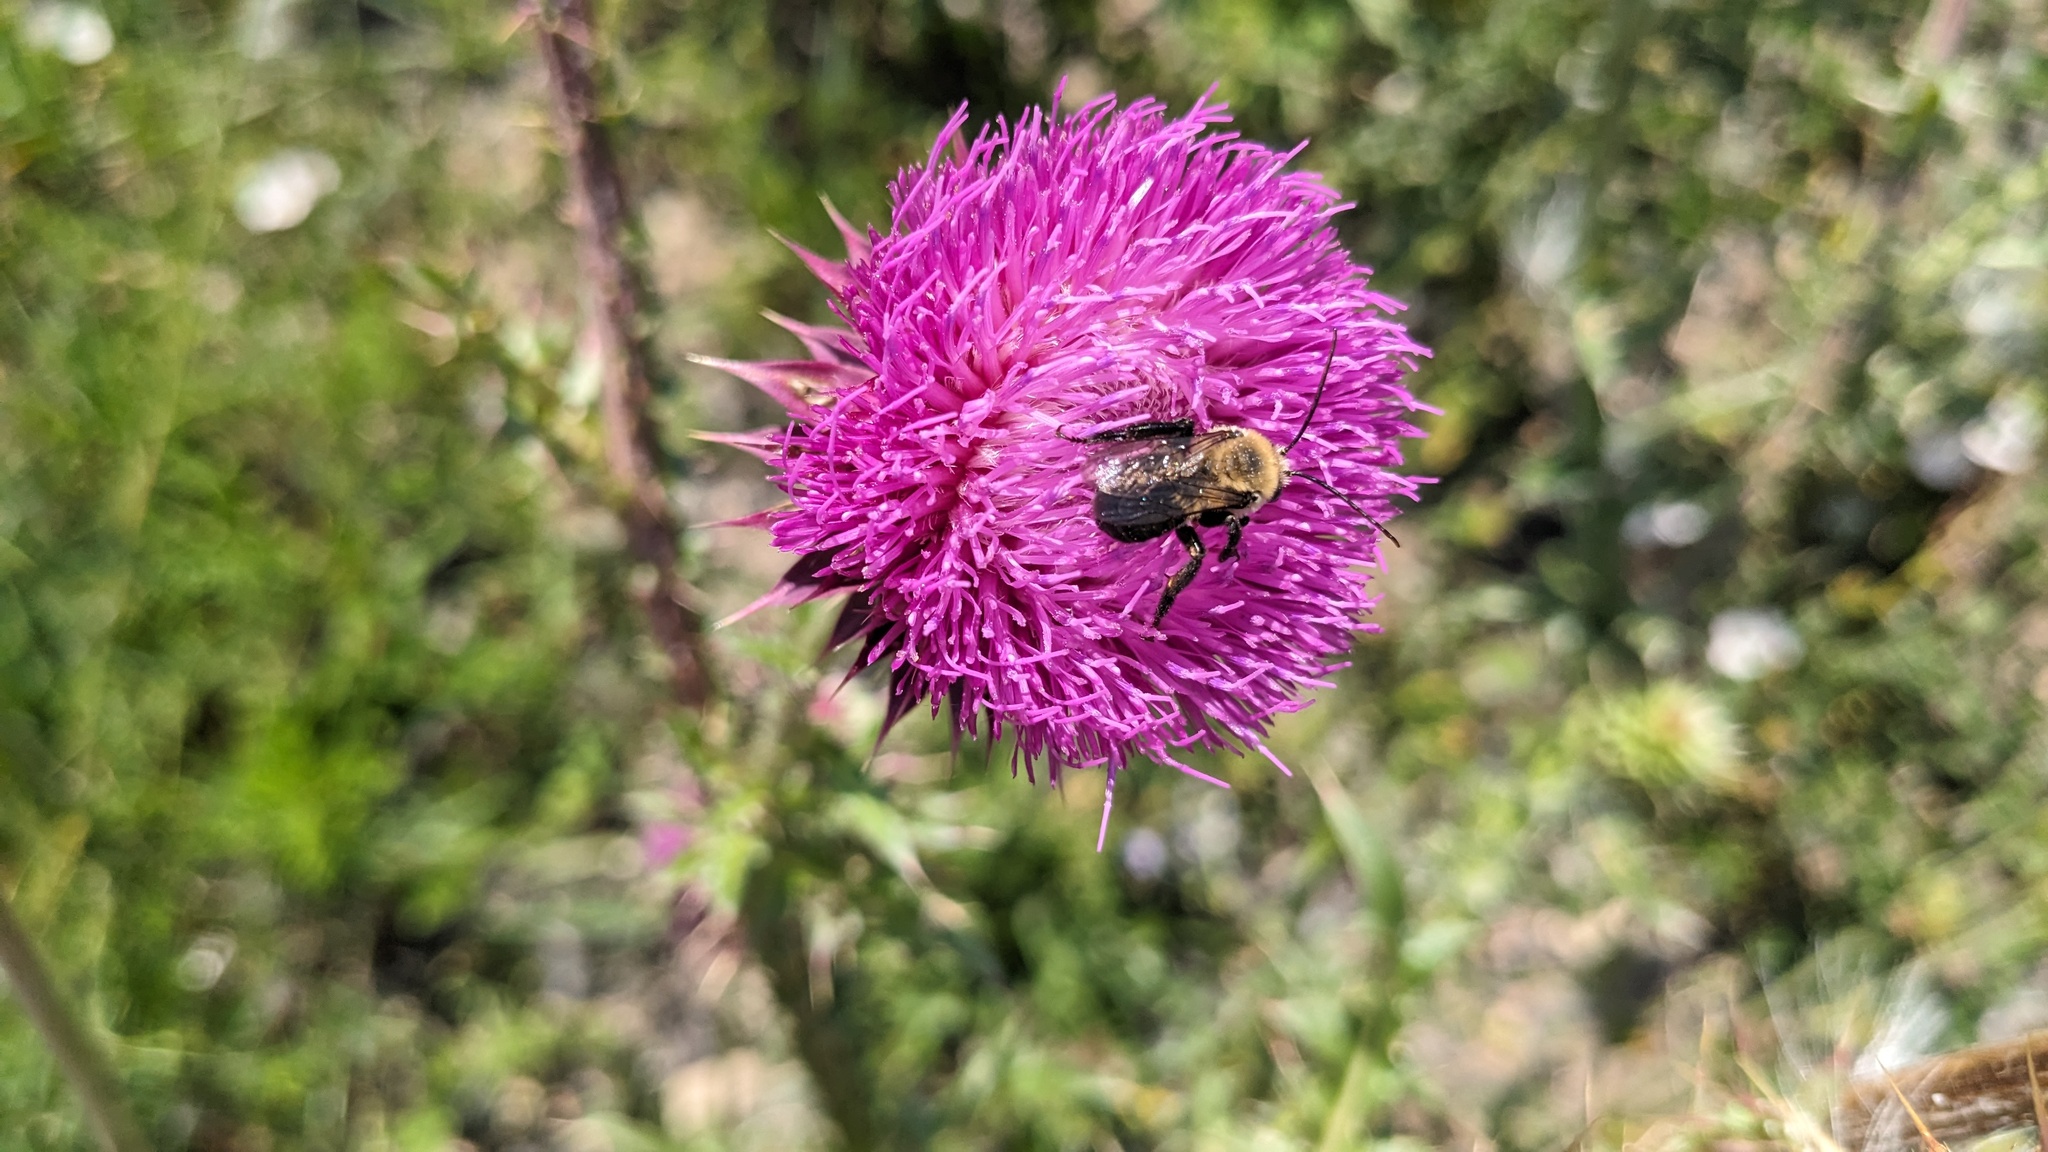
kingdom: Animalia
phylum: Arthropoda
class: Insecta
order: Hymenoptera
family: Apidae
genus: Melissodes
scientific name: Melissodes desponsus
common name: Thistle long-horned bee
